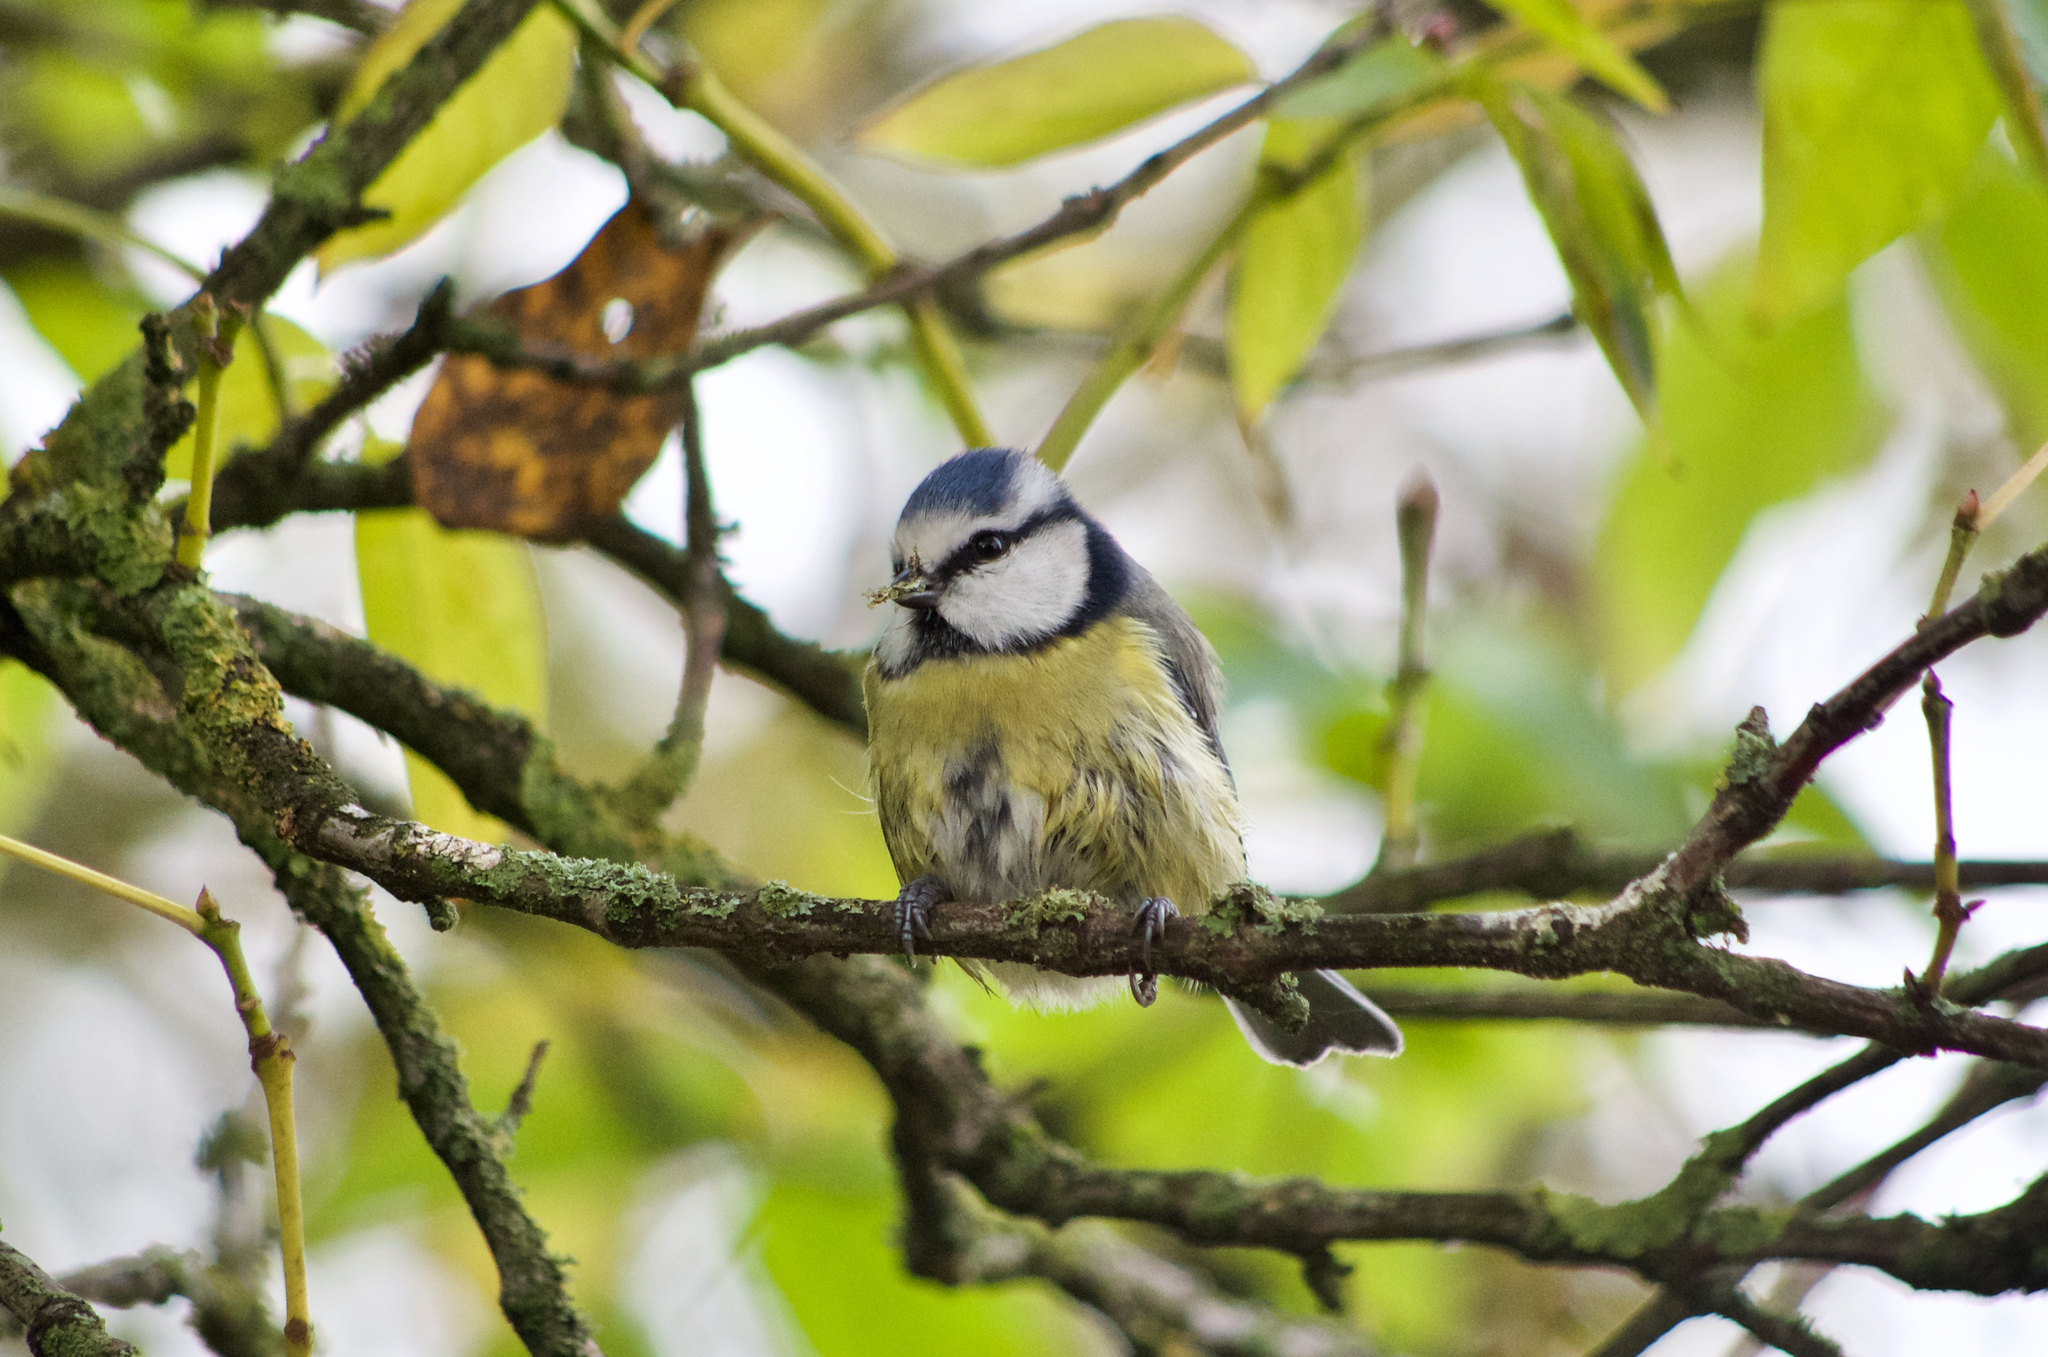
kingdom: Animalia
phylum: Chordata
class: Aves
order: Passeriformes
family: Paridae
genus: Cyanistes
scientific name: Cyanistes caeruleus
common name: Eurasian blue tit
